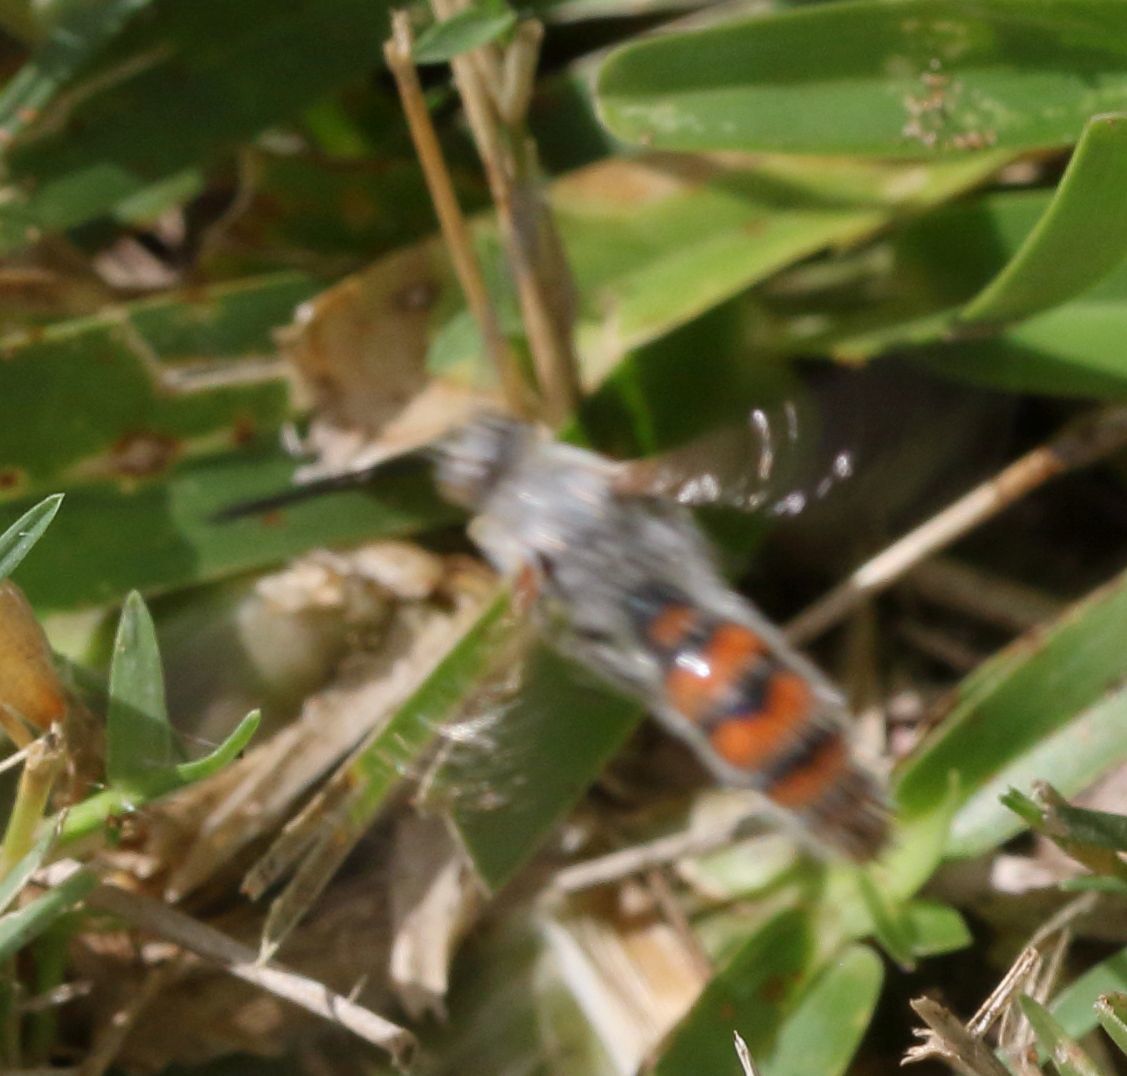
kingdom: Animalia
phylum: Arthropoda
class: Insecta
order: Hymenoptera
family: Scoliidae
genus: Campsomeriella
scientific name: Campsomeriella caelebs
